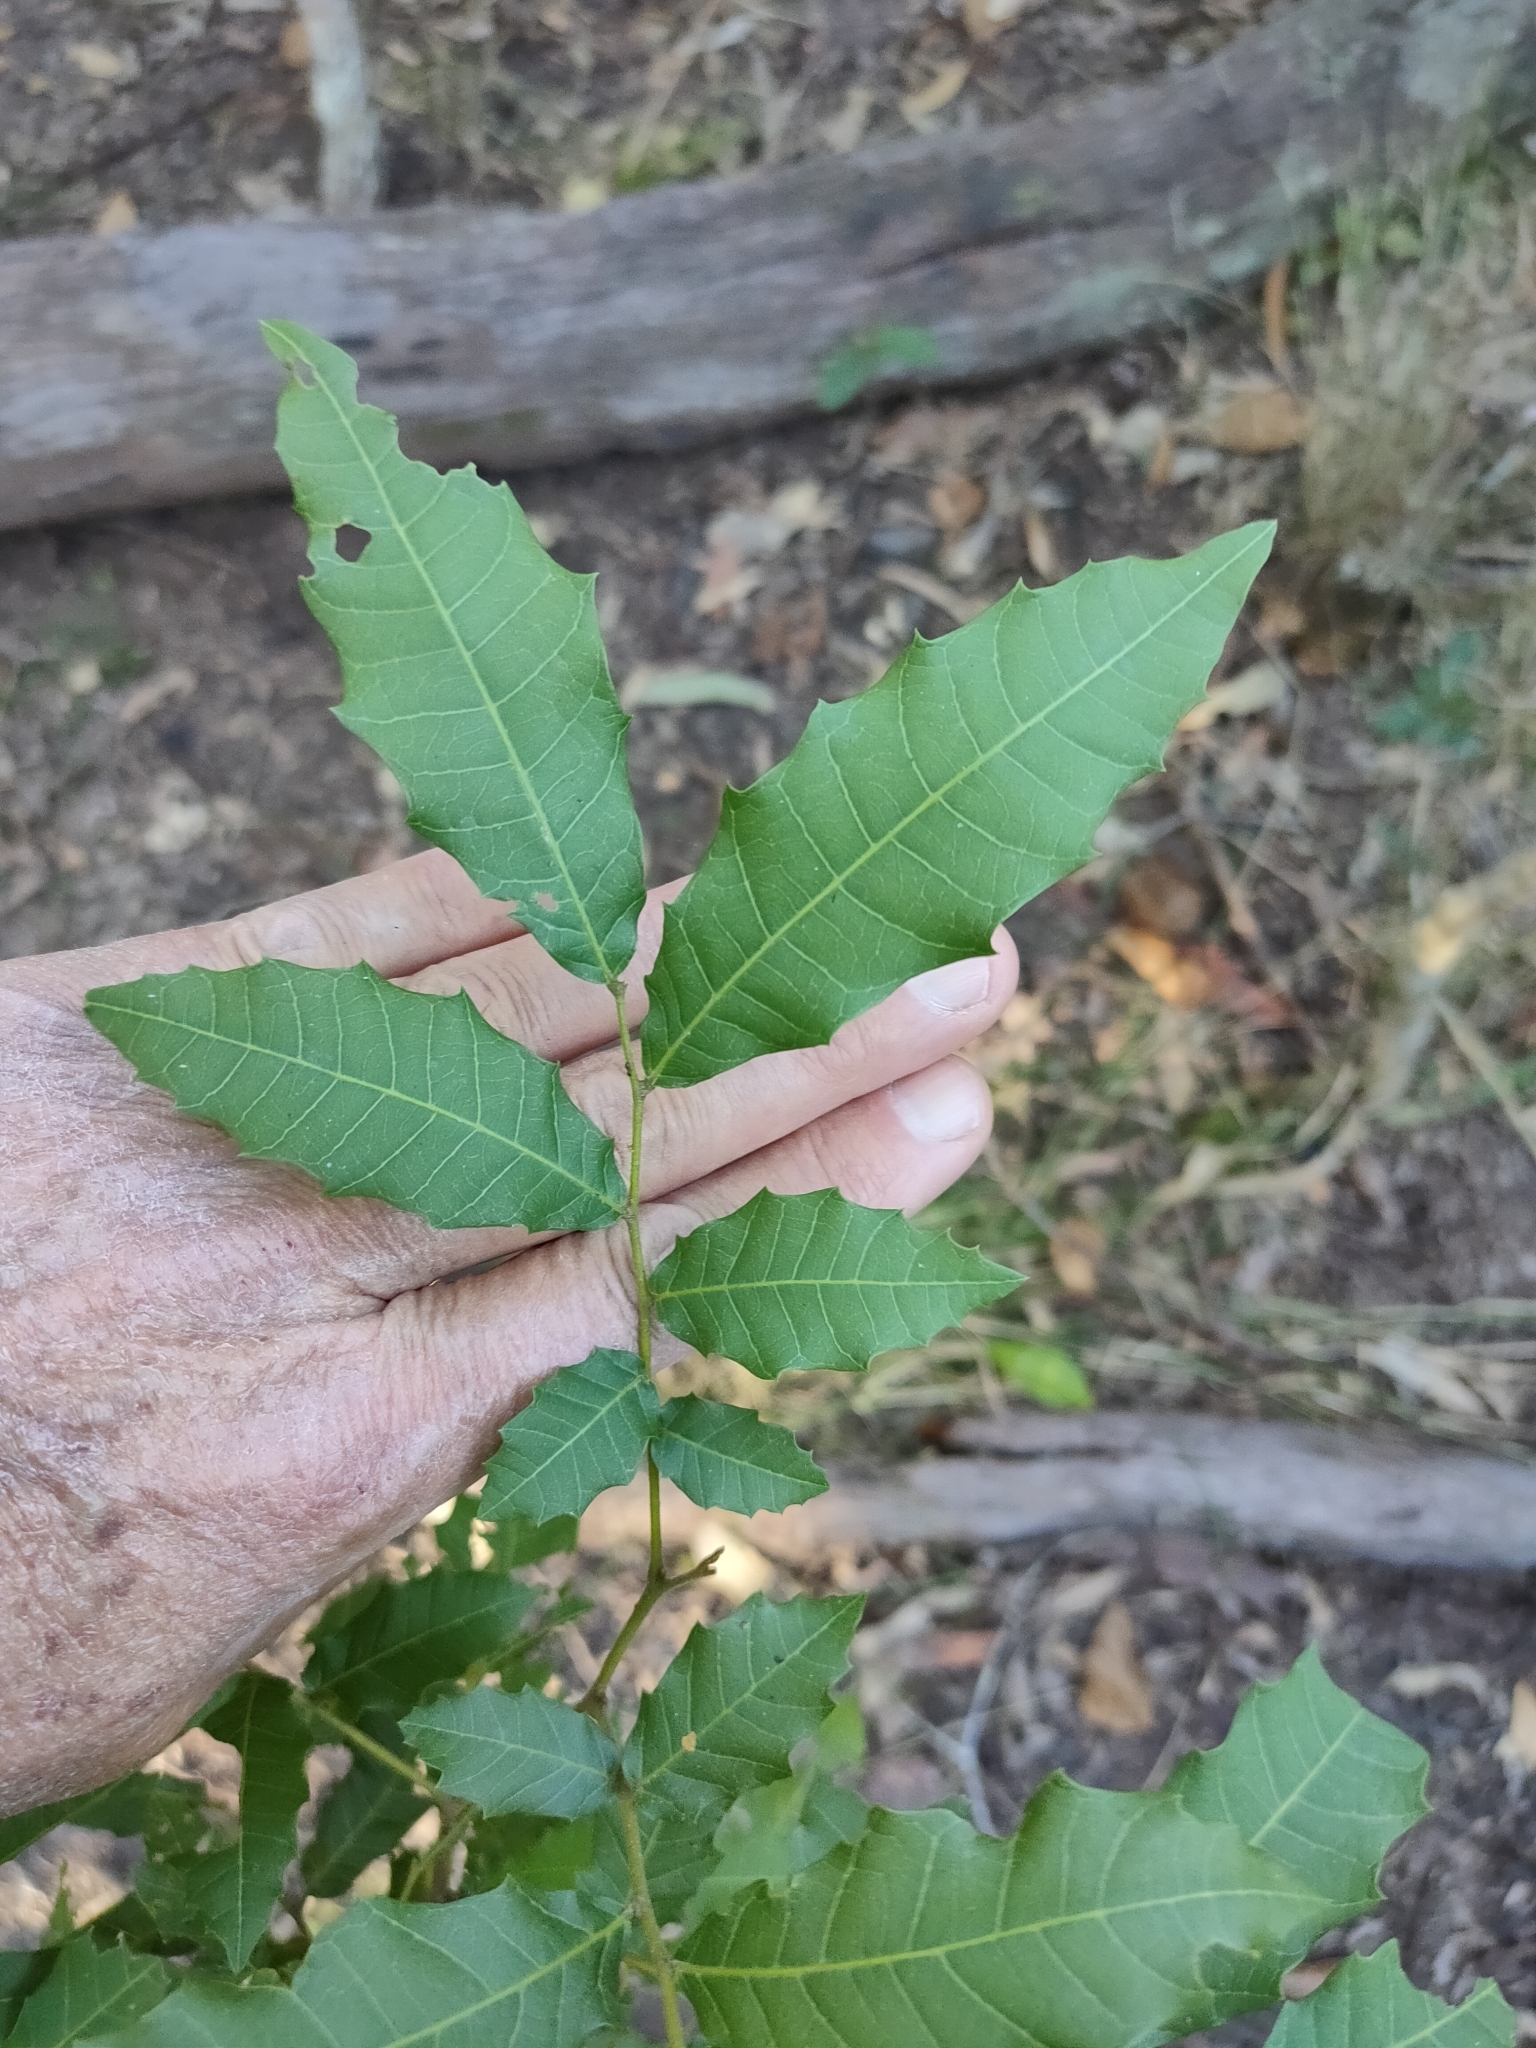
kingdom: Plantae
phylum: Tracheophyta
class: Magnoliopsida
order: Sapindales
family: Sapindaceae
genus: Elattostachys
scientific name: Elattostachys xylocarpa
